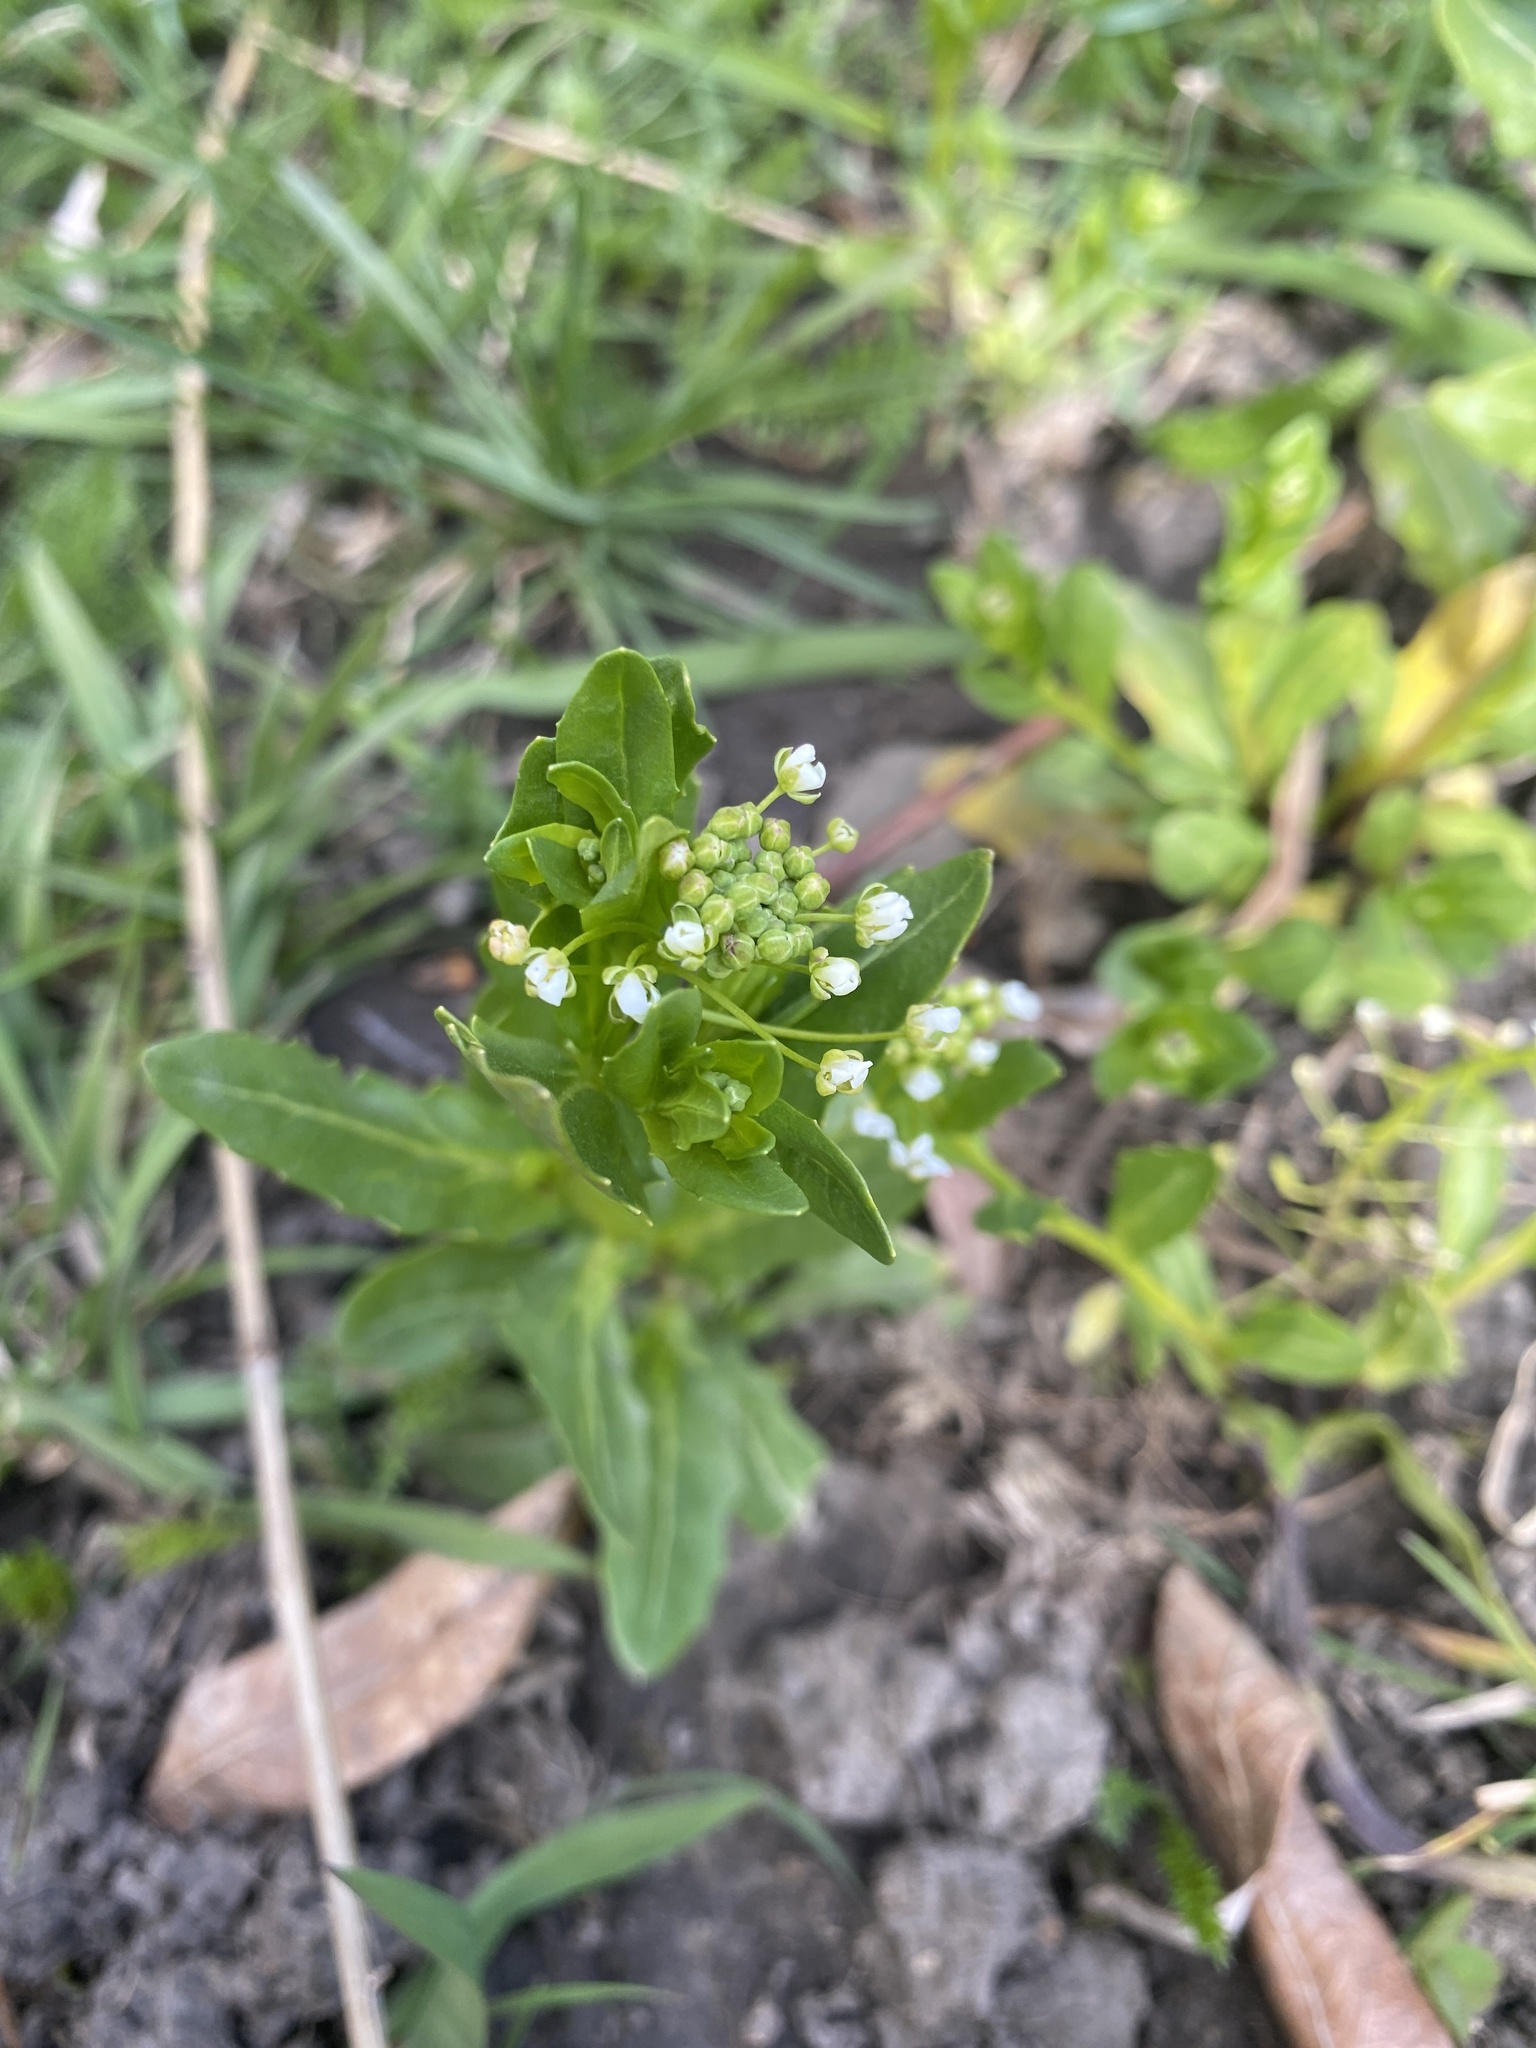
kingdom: Plantae
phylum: Tracheophyta
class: Magnoliopsida
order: Brassicales
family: Brassicaceae
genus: Thlaspi
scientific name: Thlaspi arvense
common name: Field pennycress
